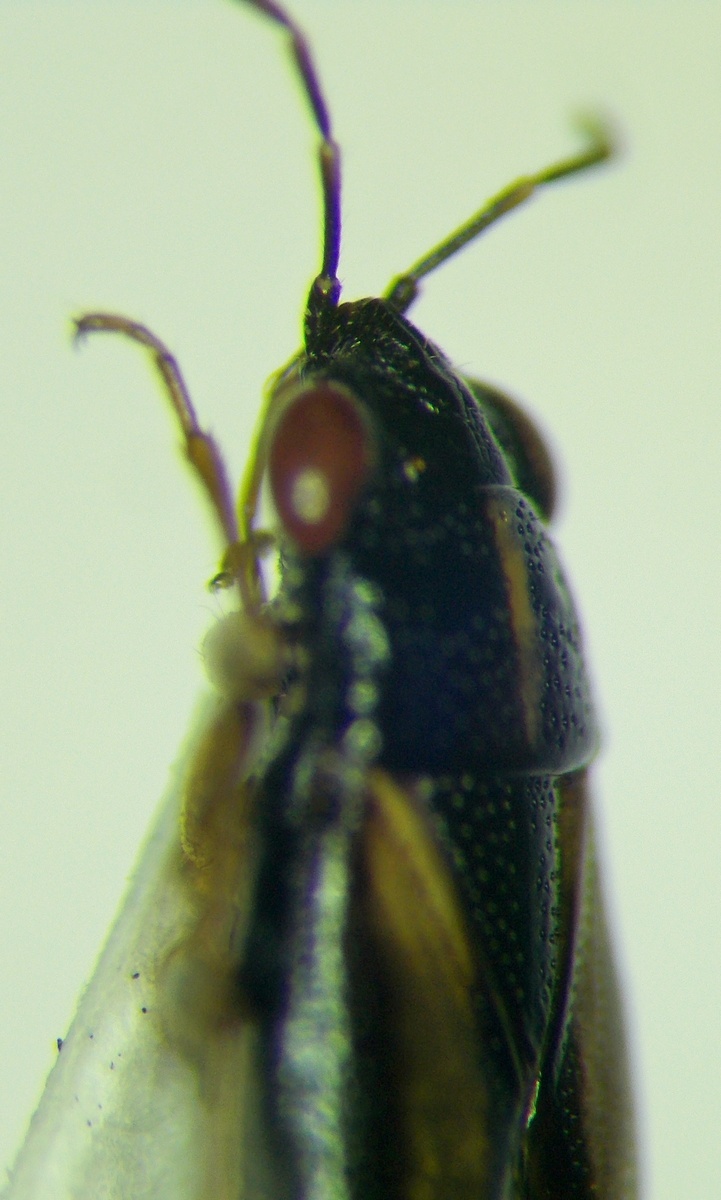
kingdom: Animalia
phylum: Arthropoda
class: Insecta
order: Hemiptera
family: Geocoridae
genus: Geocoris
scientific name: Geocoris ater
